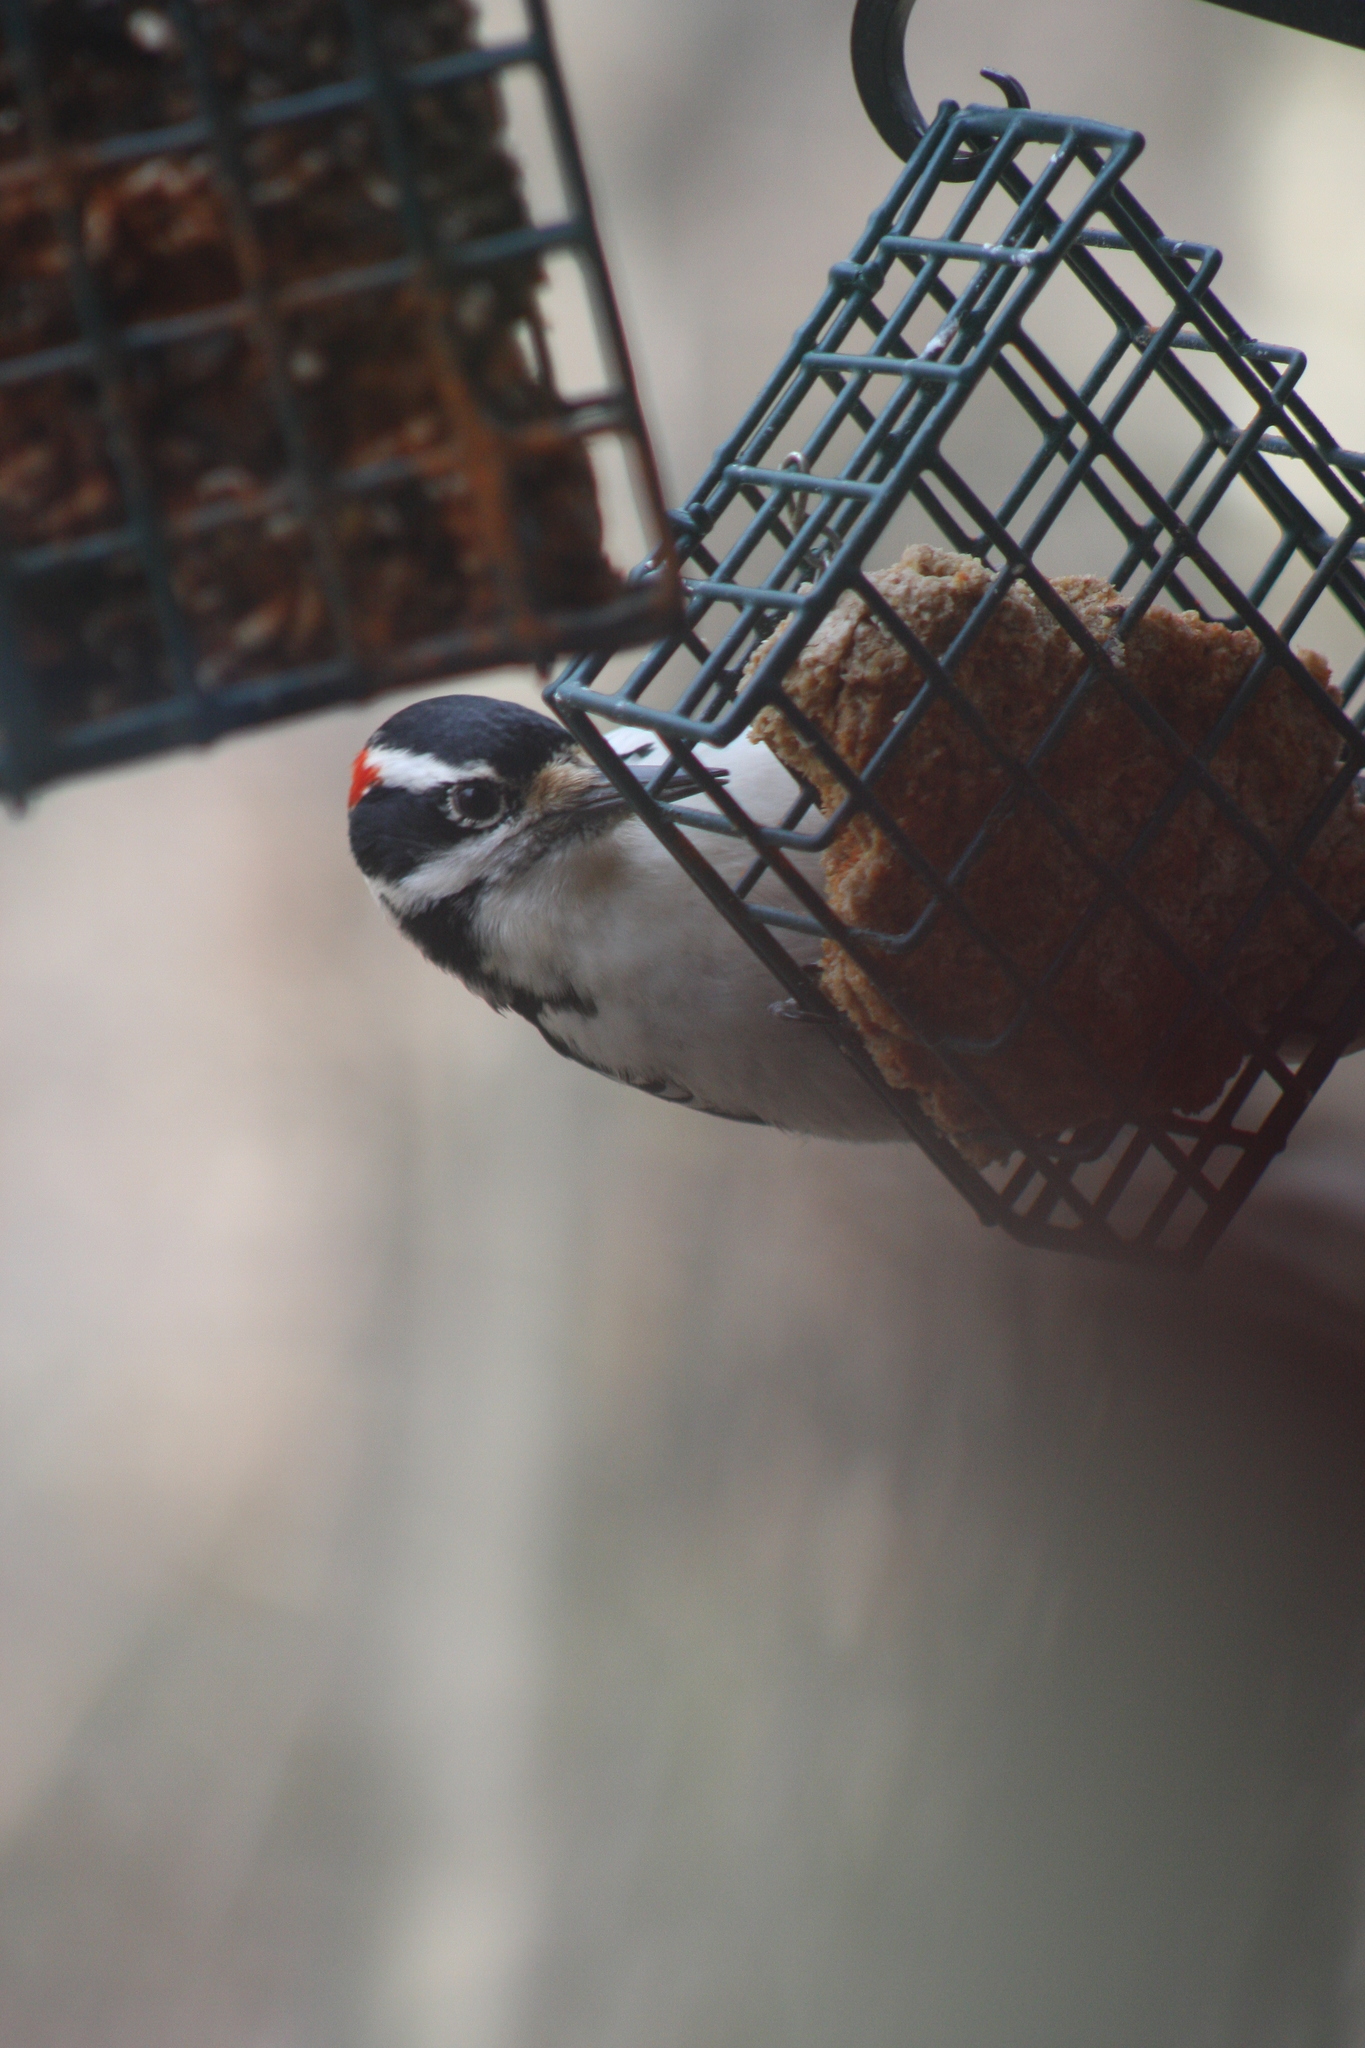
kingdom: Animalia
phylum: Chordata
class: Aves
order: Piciformes
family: Picidae
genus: Leuconotopicus
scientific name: Leuconotopicus villosus
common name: Hairy woodpecker
